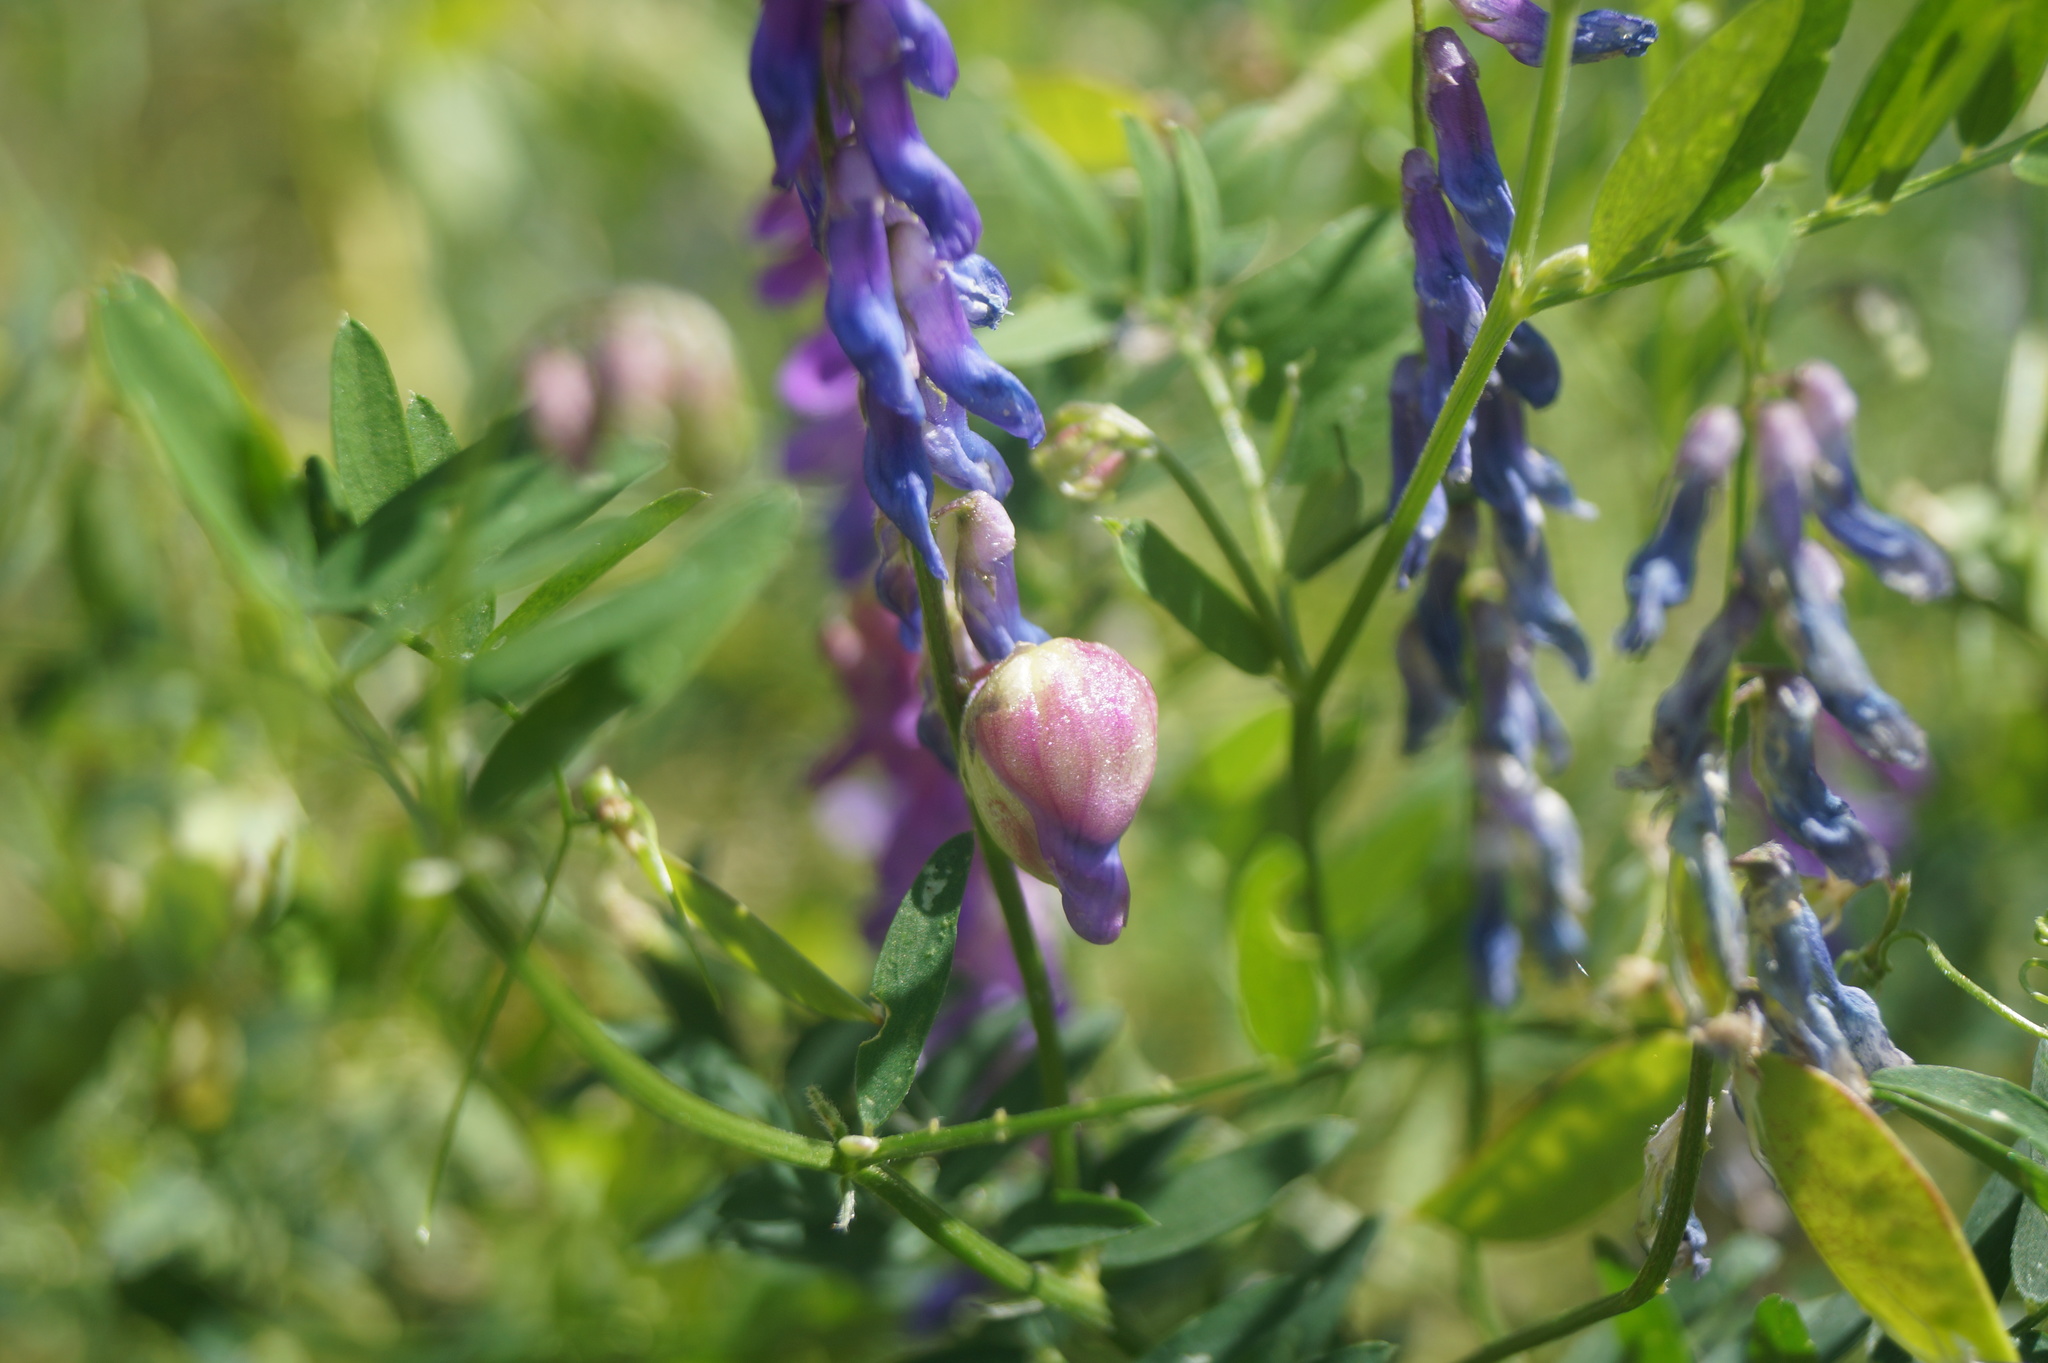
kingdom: Animalia
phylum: Arthropoda
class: Insecta
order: Diptera
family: Cecidomyiidae
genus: Contarinia
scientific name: Contarinia craccae
